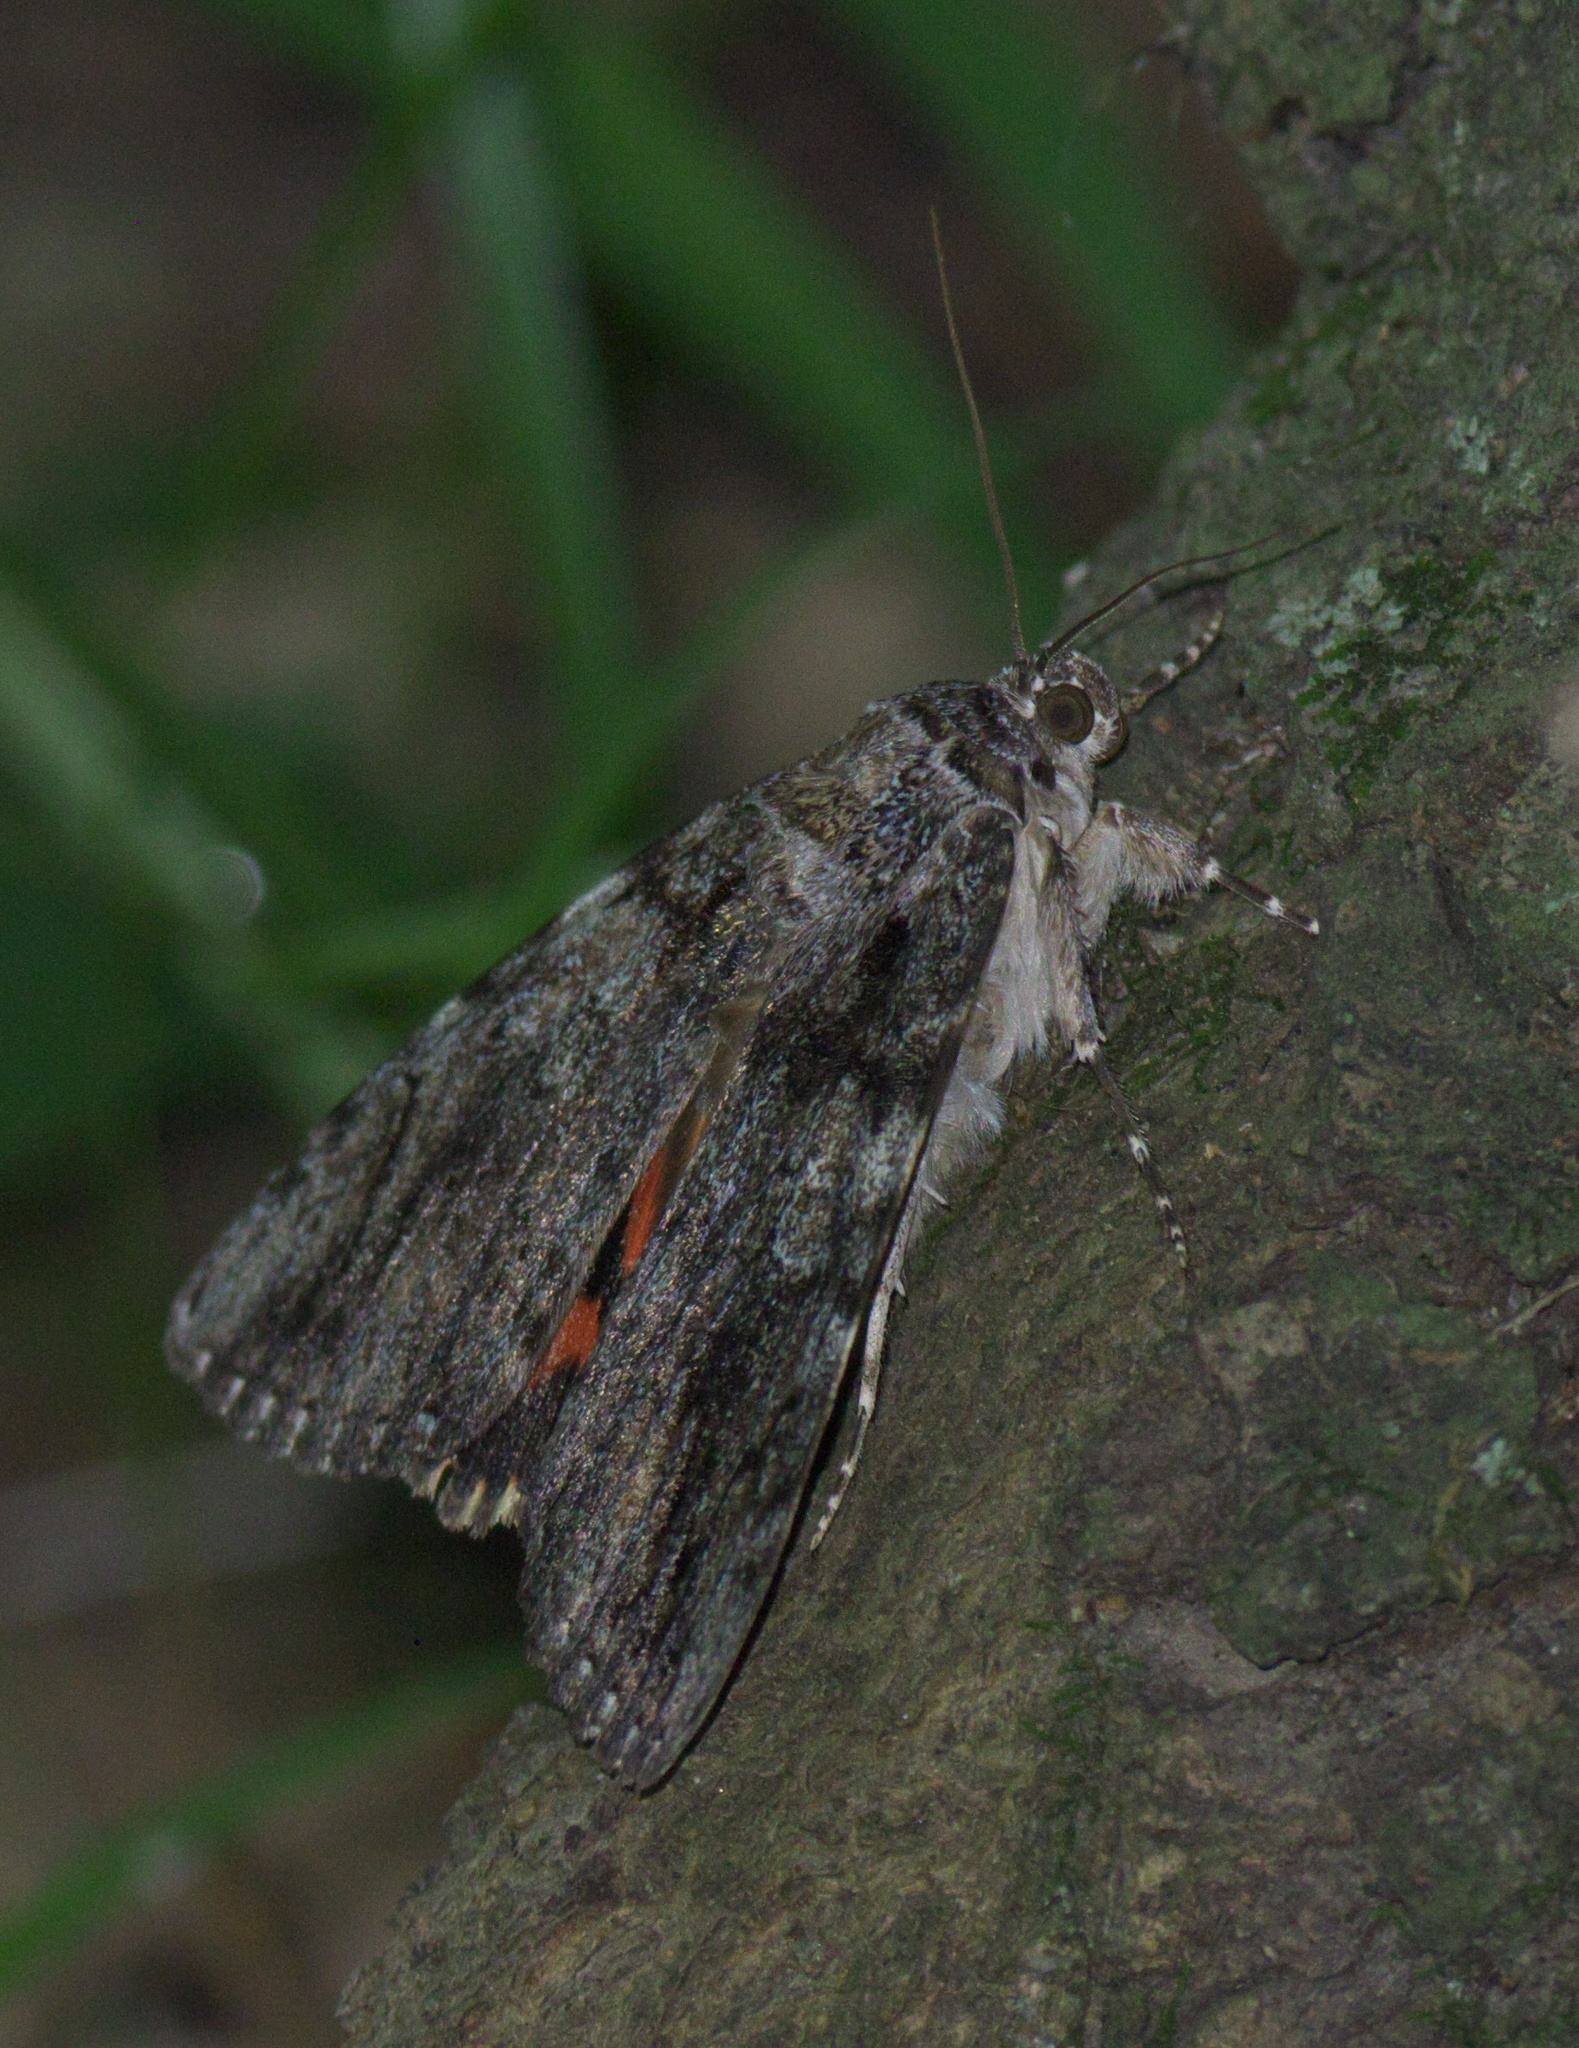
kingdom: Animalia
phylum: Arthropoda
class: Insecta
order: Lepidoptera
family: Erebidae
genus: Catocala
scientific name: Catocala ilia
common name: Ilia underwing
